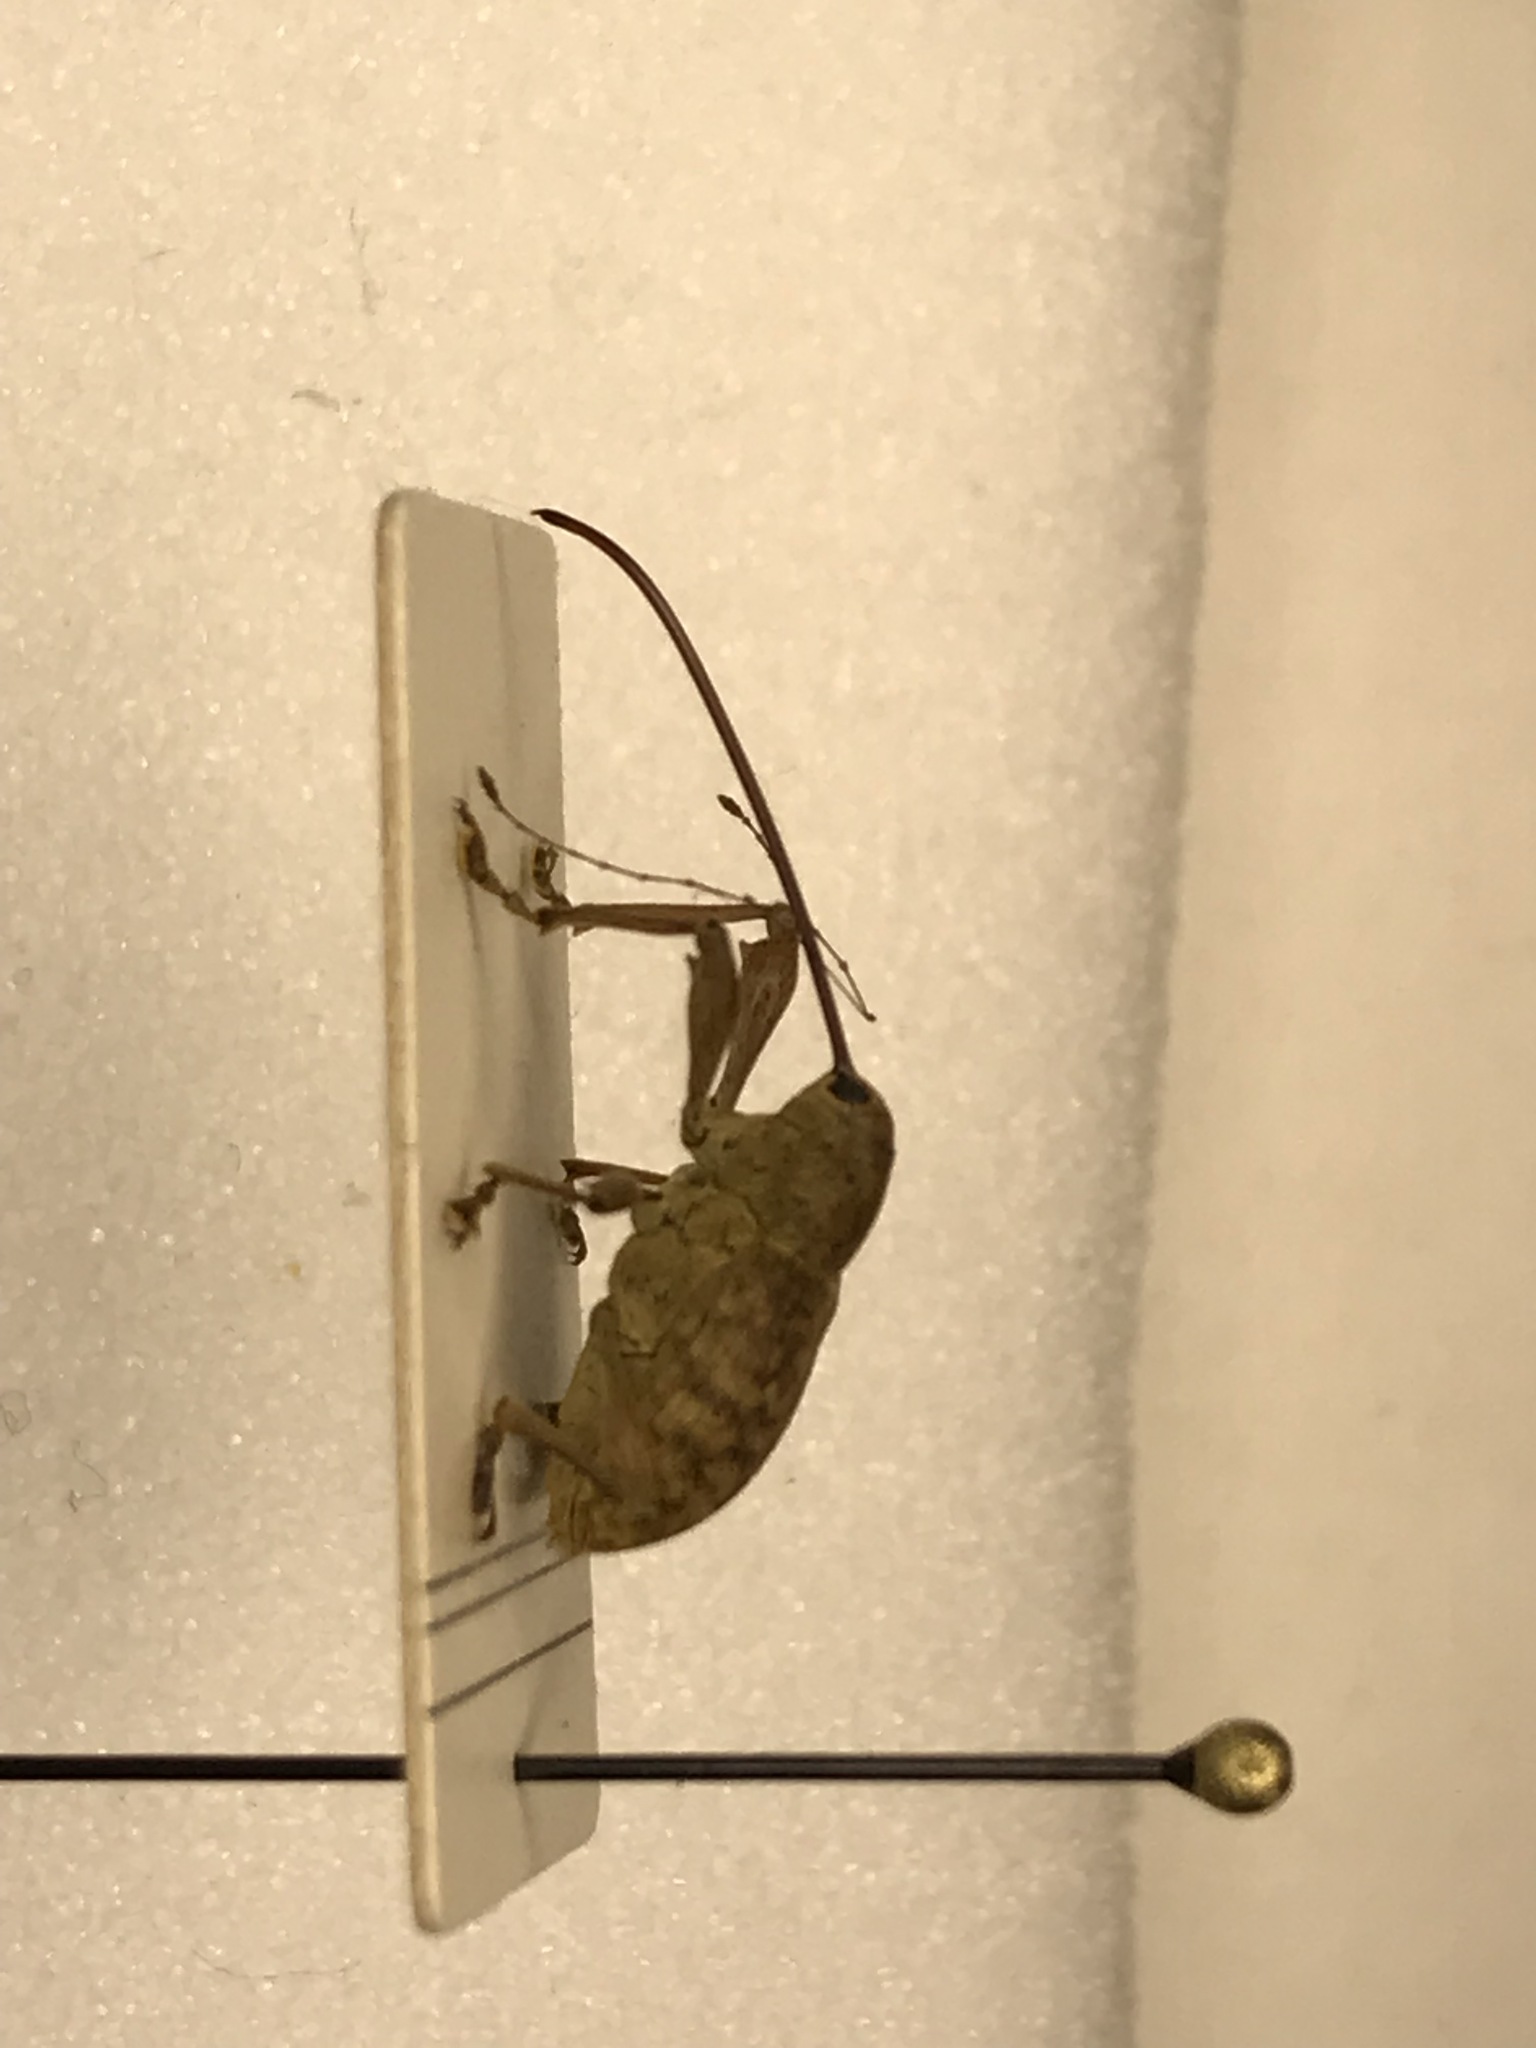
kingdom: Animalia
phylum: Arthropoda
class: Insecta
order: Coleoptera
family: Curculionidae
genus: Curculio
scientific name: Curculio proboscideus
